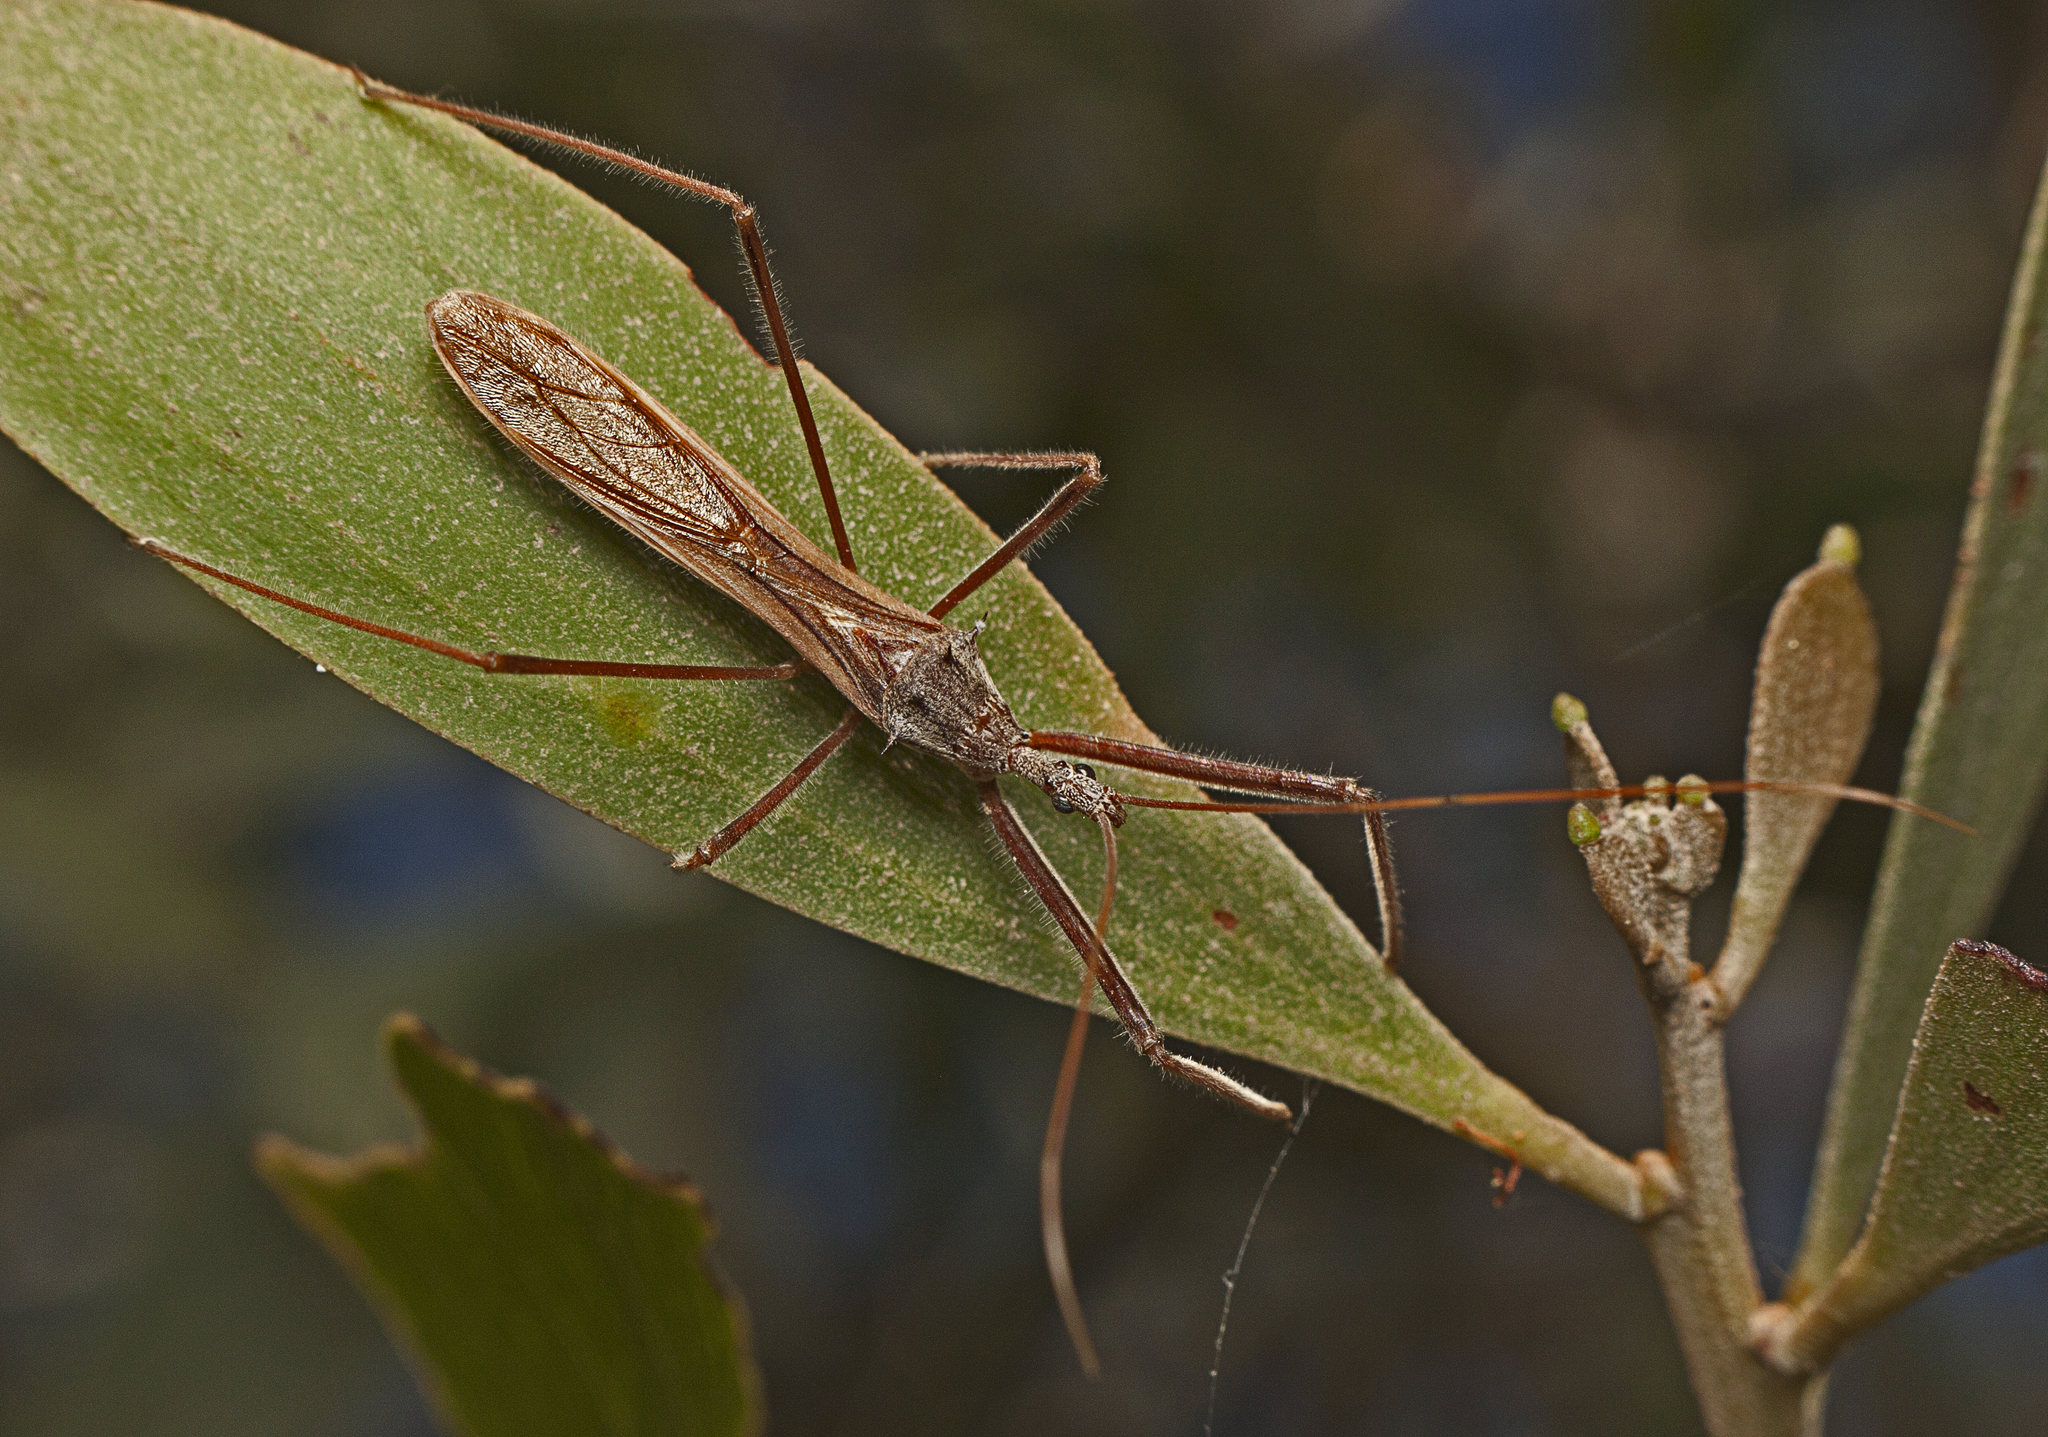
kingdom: Animalia
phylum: Arthropoda
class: Insecta
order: Hemiptera
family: Reduviidae
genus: Australcmena
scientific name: Australcmena lineativentris
